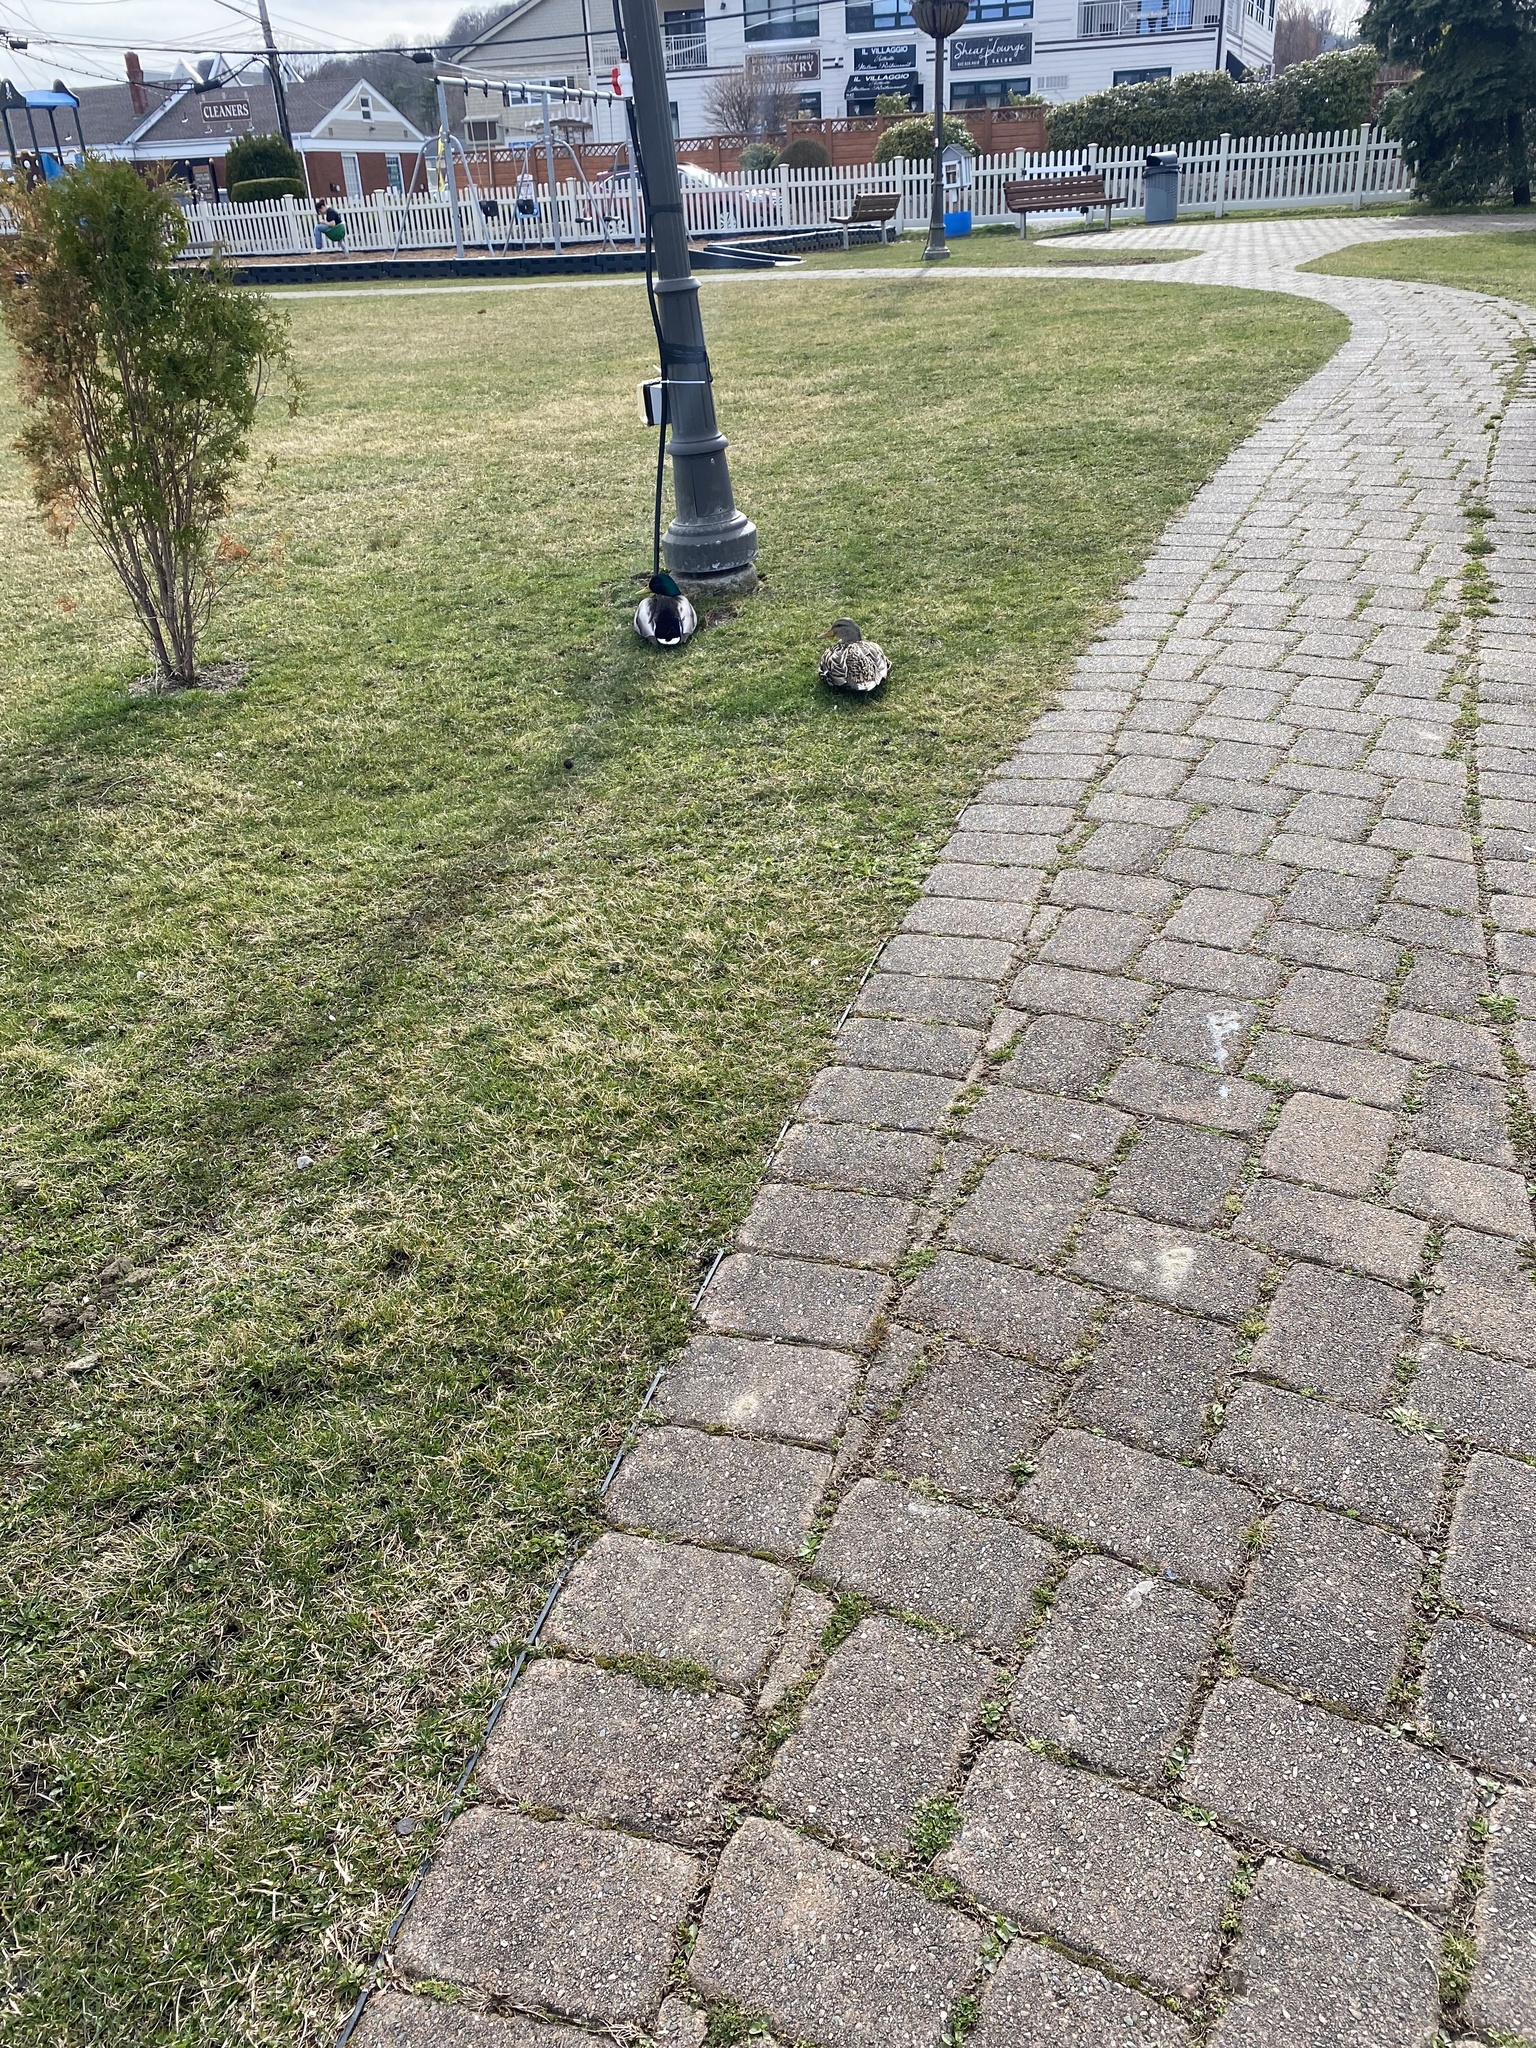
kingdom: Animalia
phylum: Chordata
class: Aves
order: Anseriformes
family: Anatidae
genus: Anas
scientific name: Anas platyrhynchos
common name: Mallard
